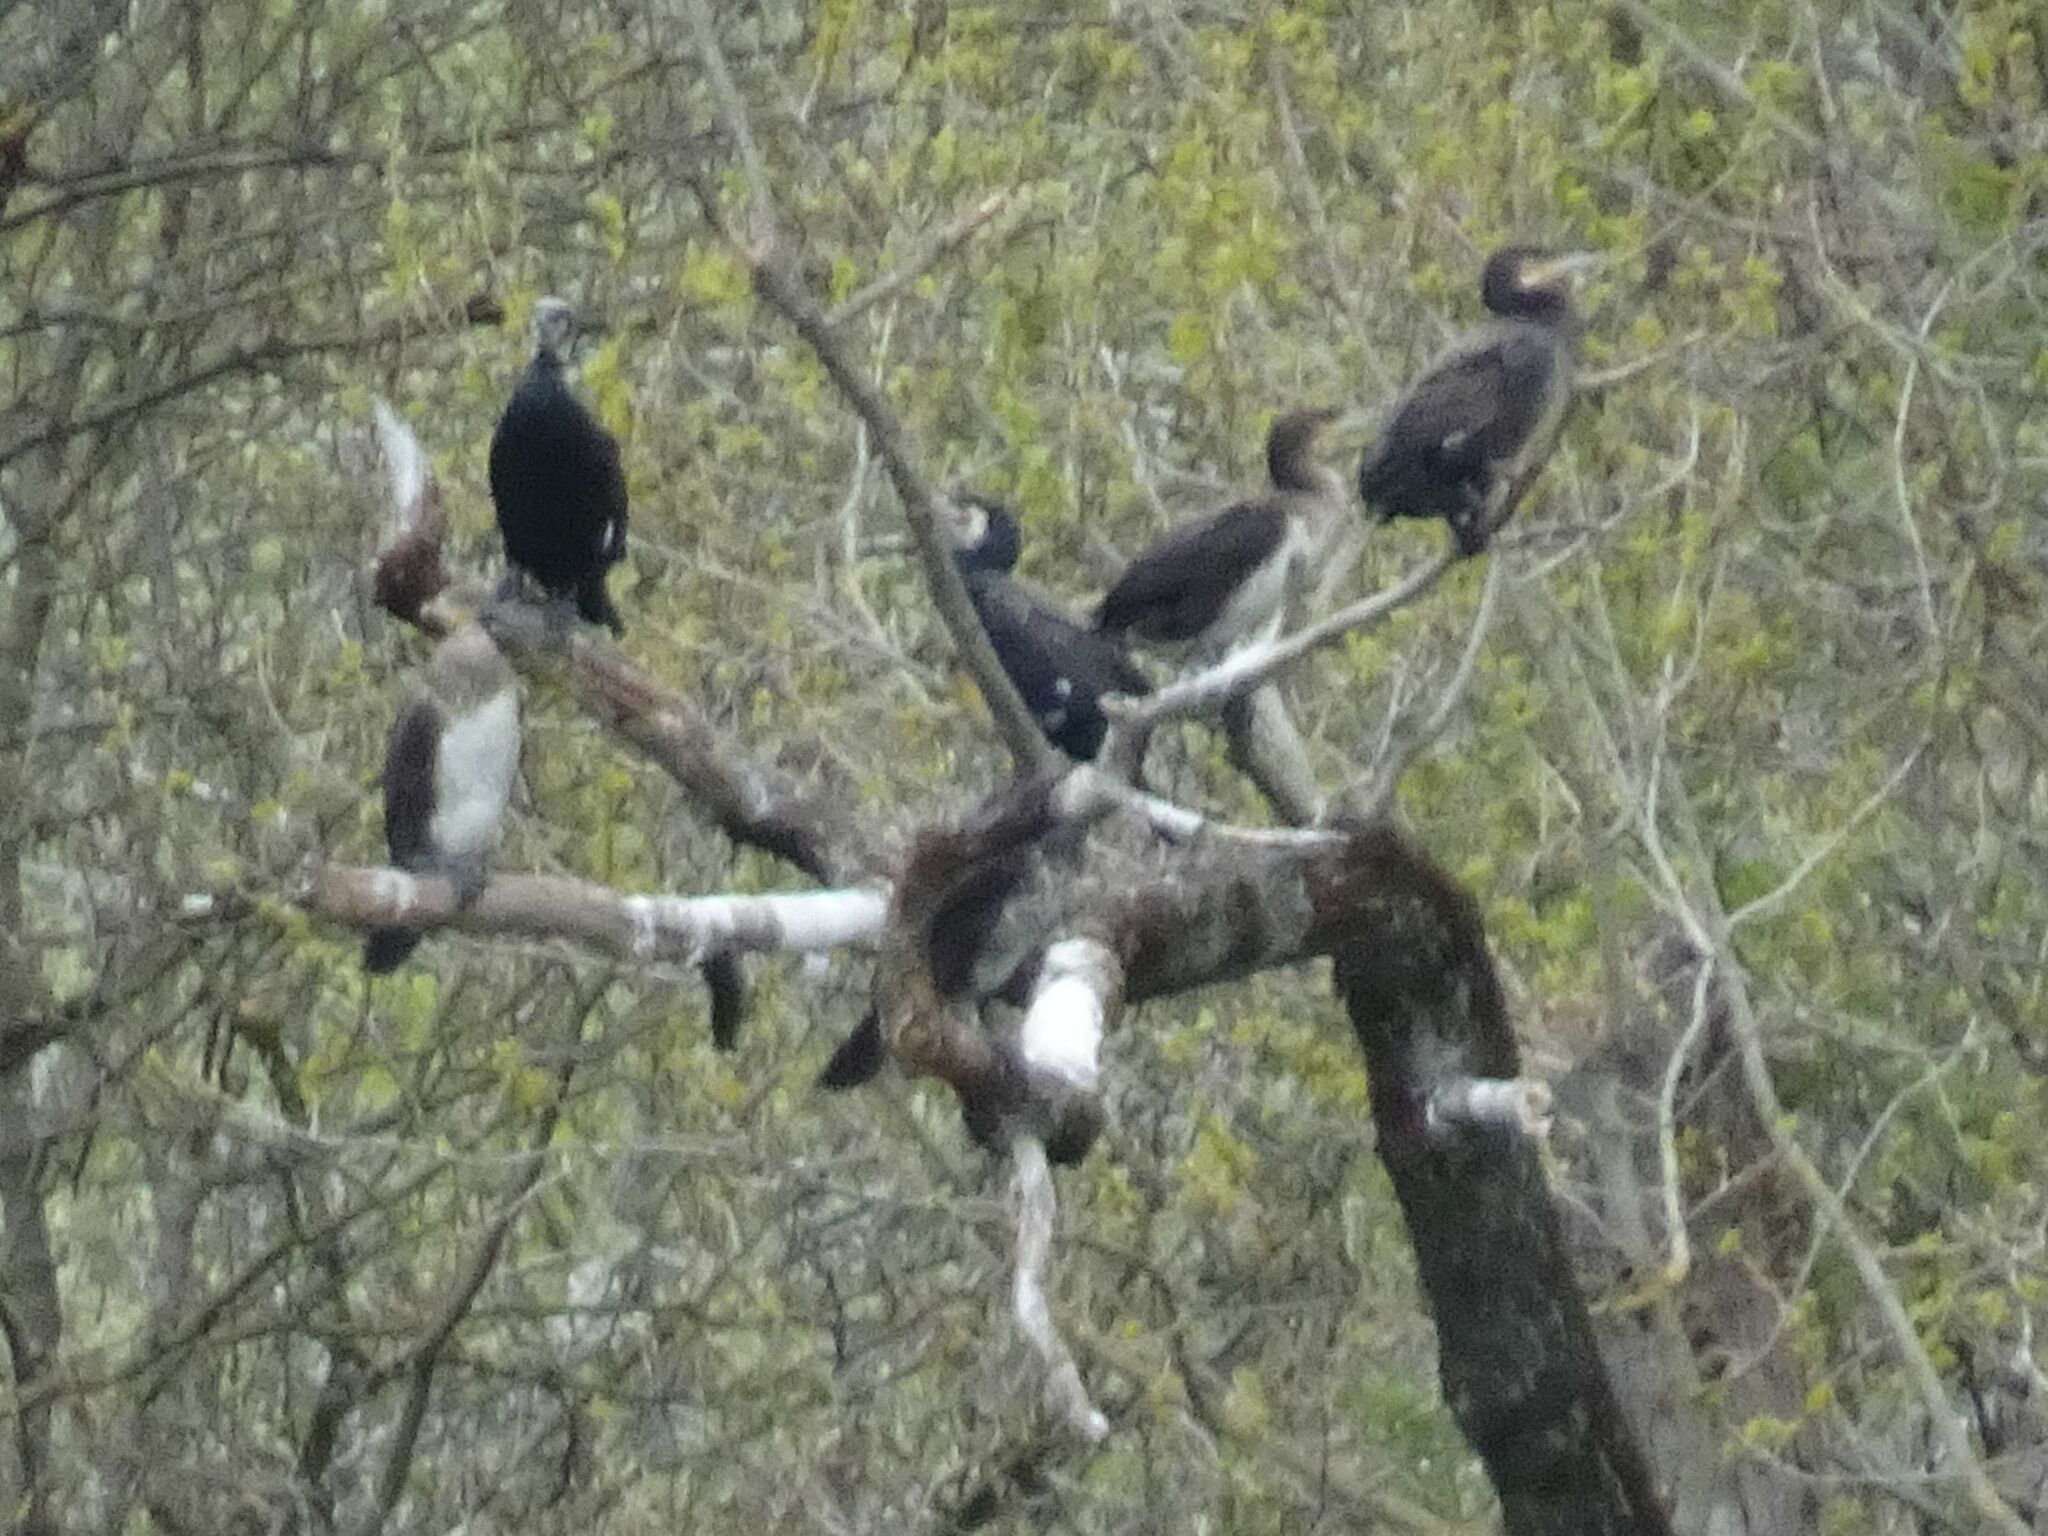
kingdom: Animalia
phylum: Chordata
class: Aves
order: Suliformes
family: Phalacrocoracidae
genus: Phalacrocorax
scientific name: Phalacrocorax carbo
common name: Great cormorant
